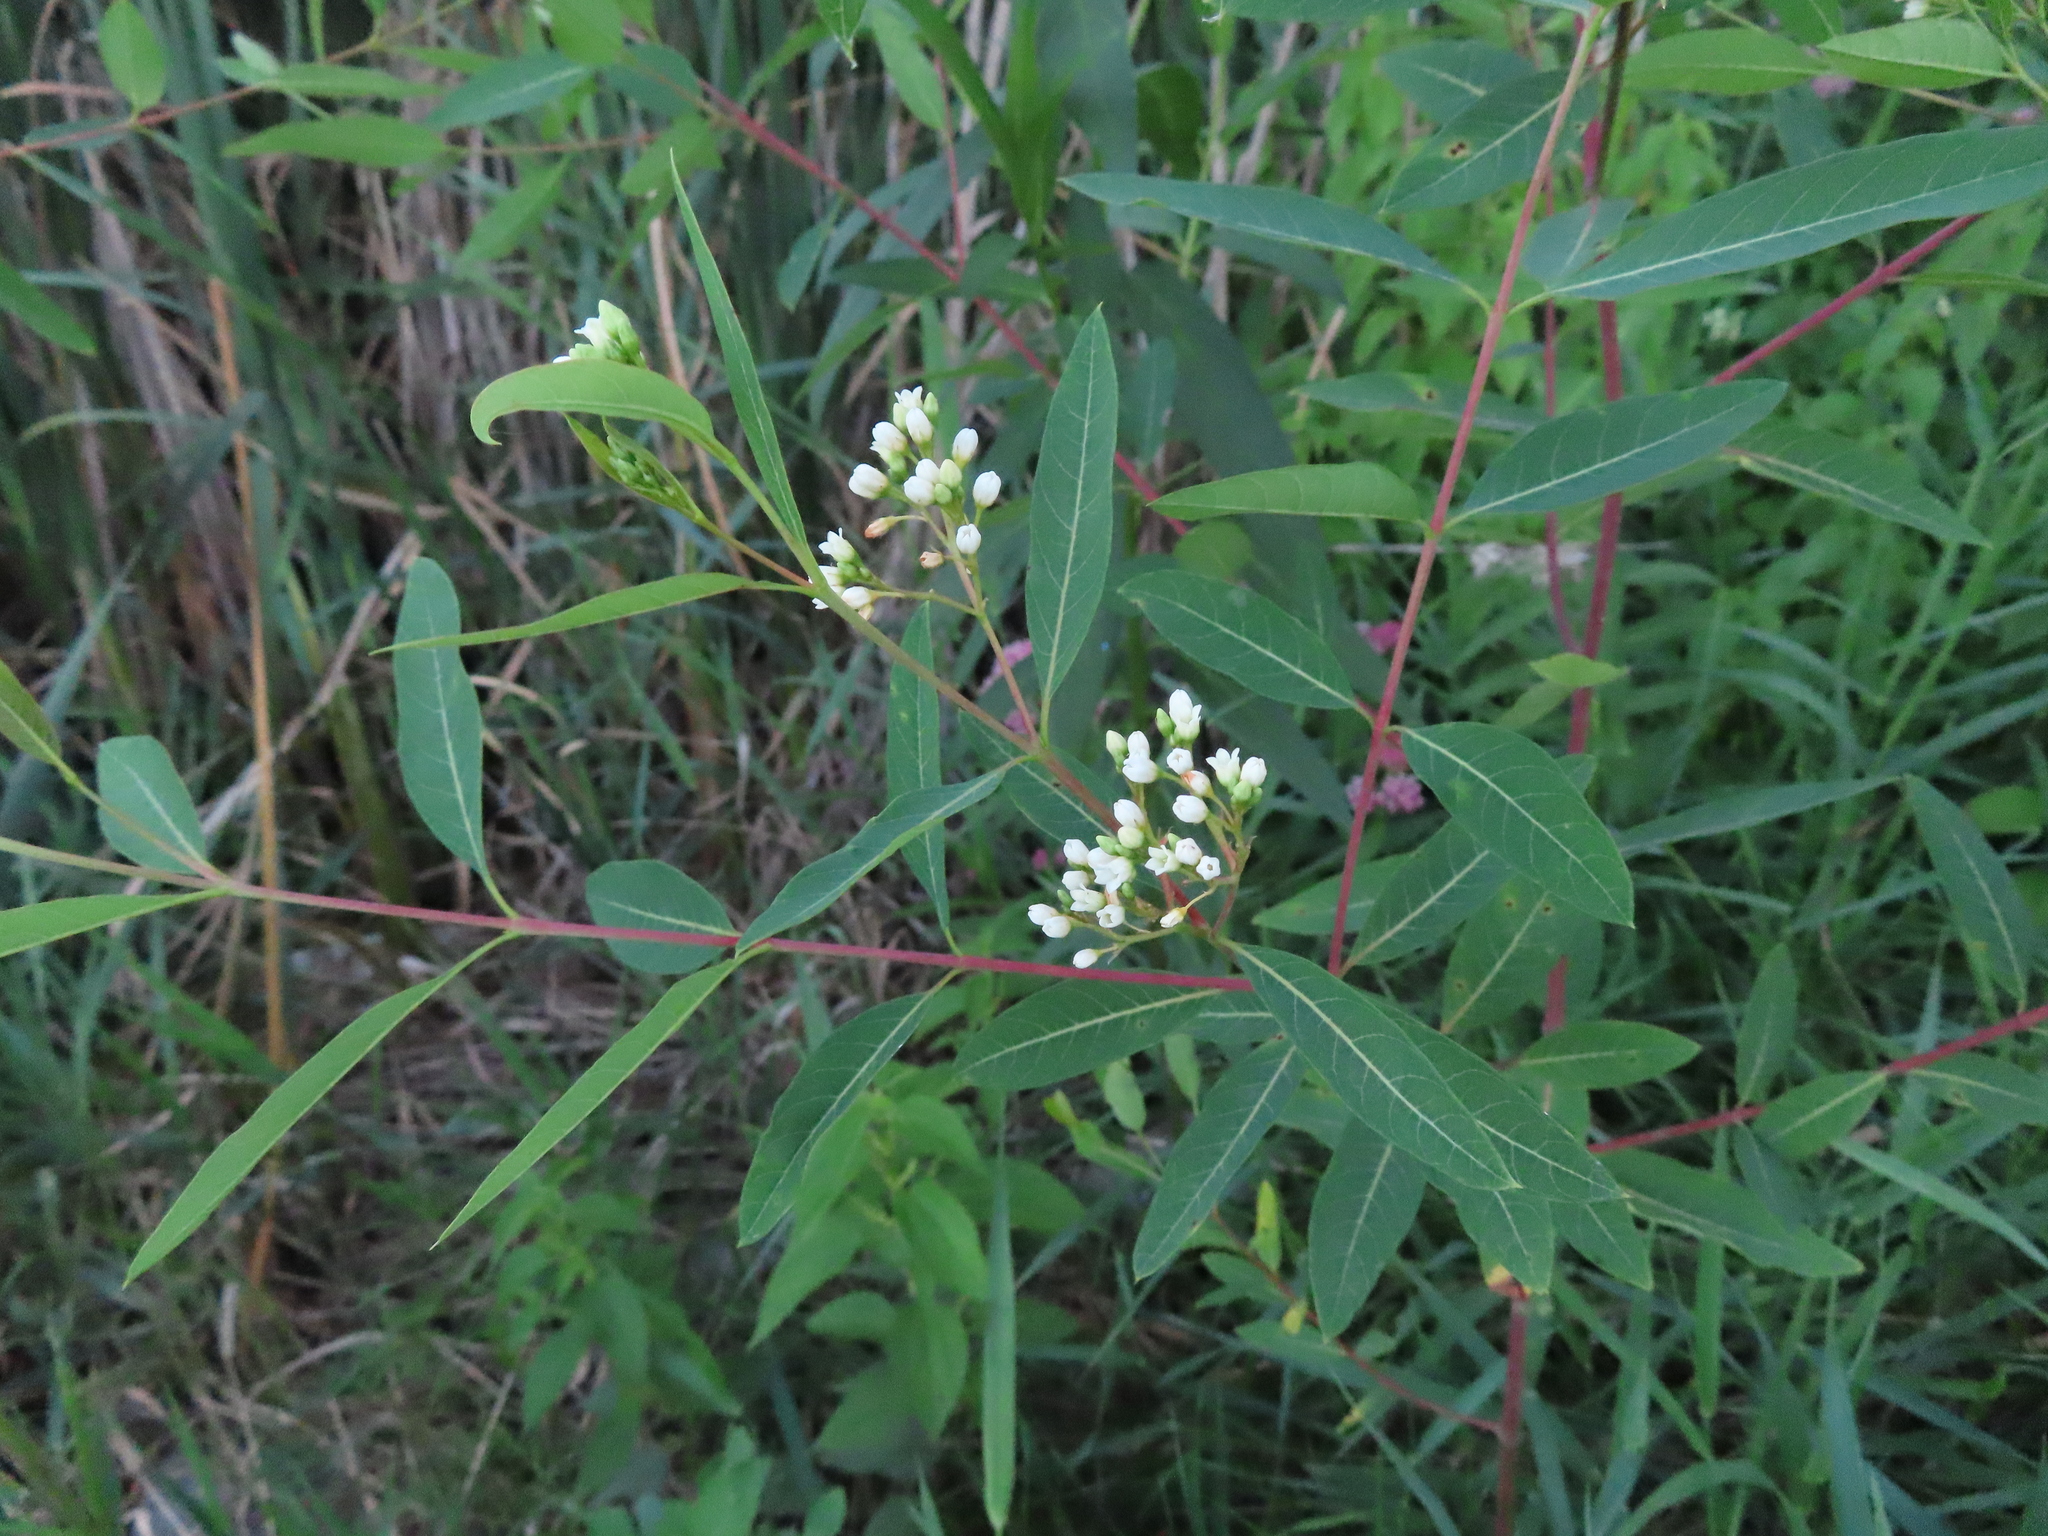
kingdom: Plantae
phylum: Tracheophyta
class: Magnoliopsida
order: Gentianales
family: Apocynaceae
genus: Apocynum
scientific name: Apocynum cannabinum
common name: Hemp dogbane
